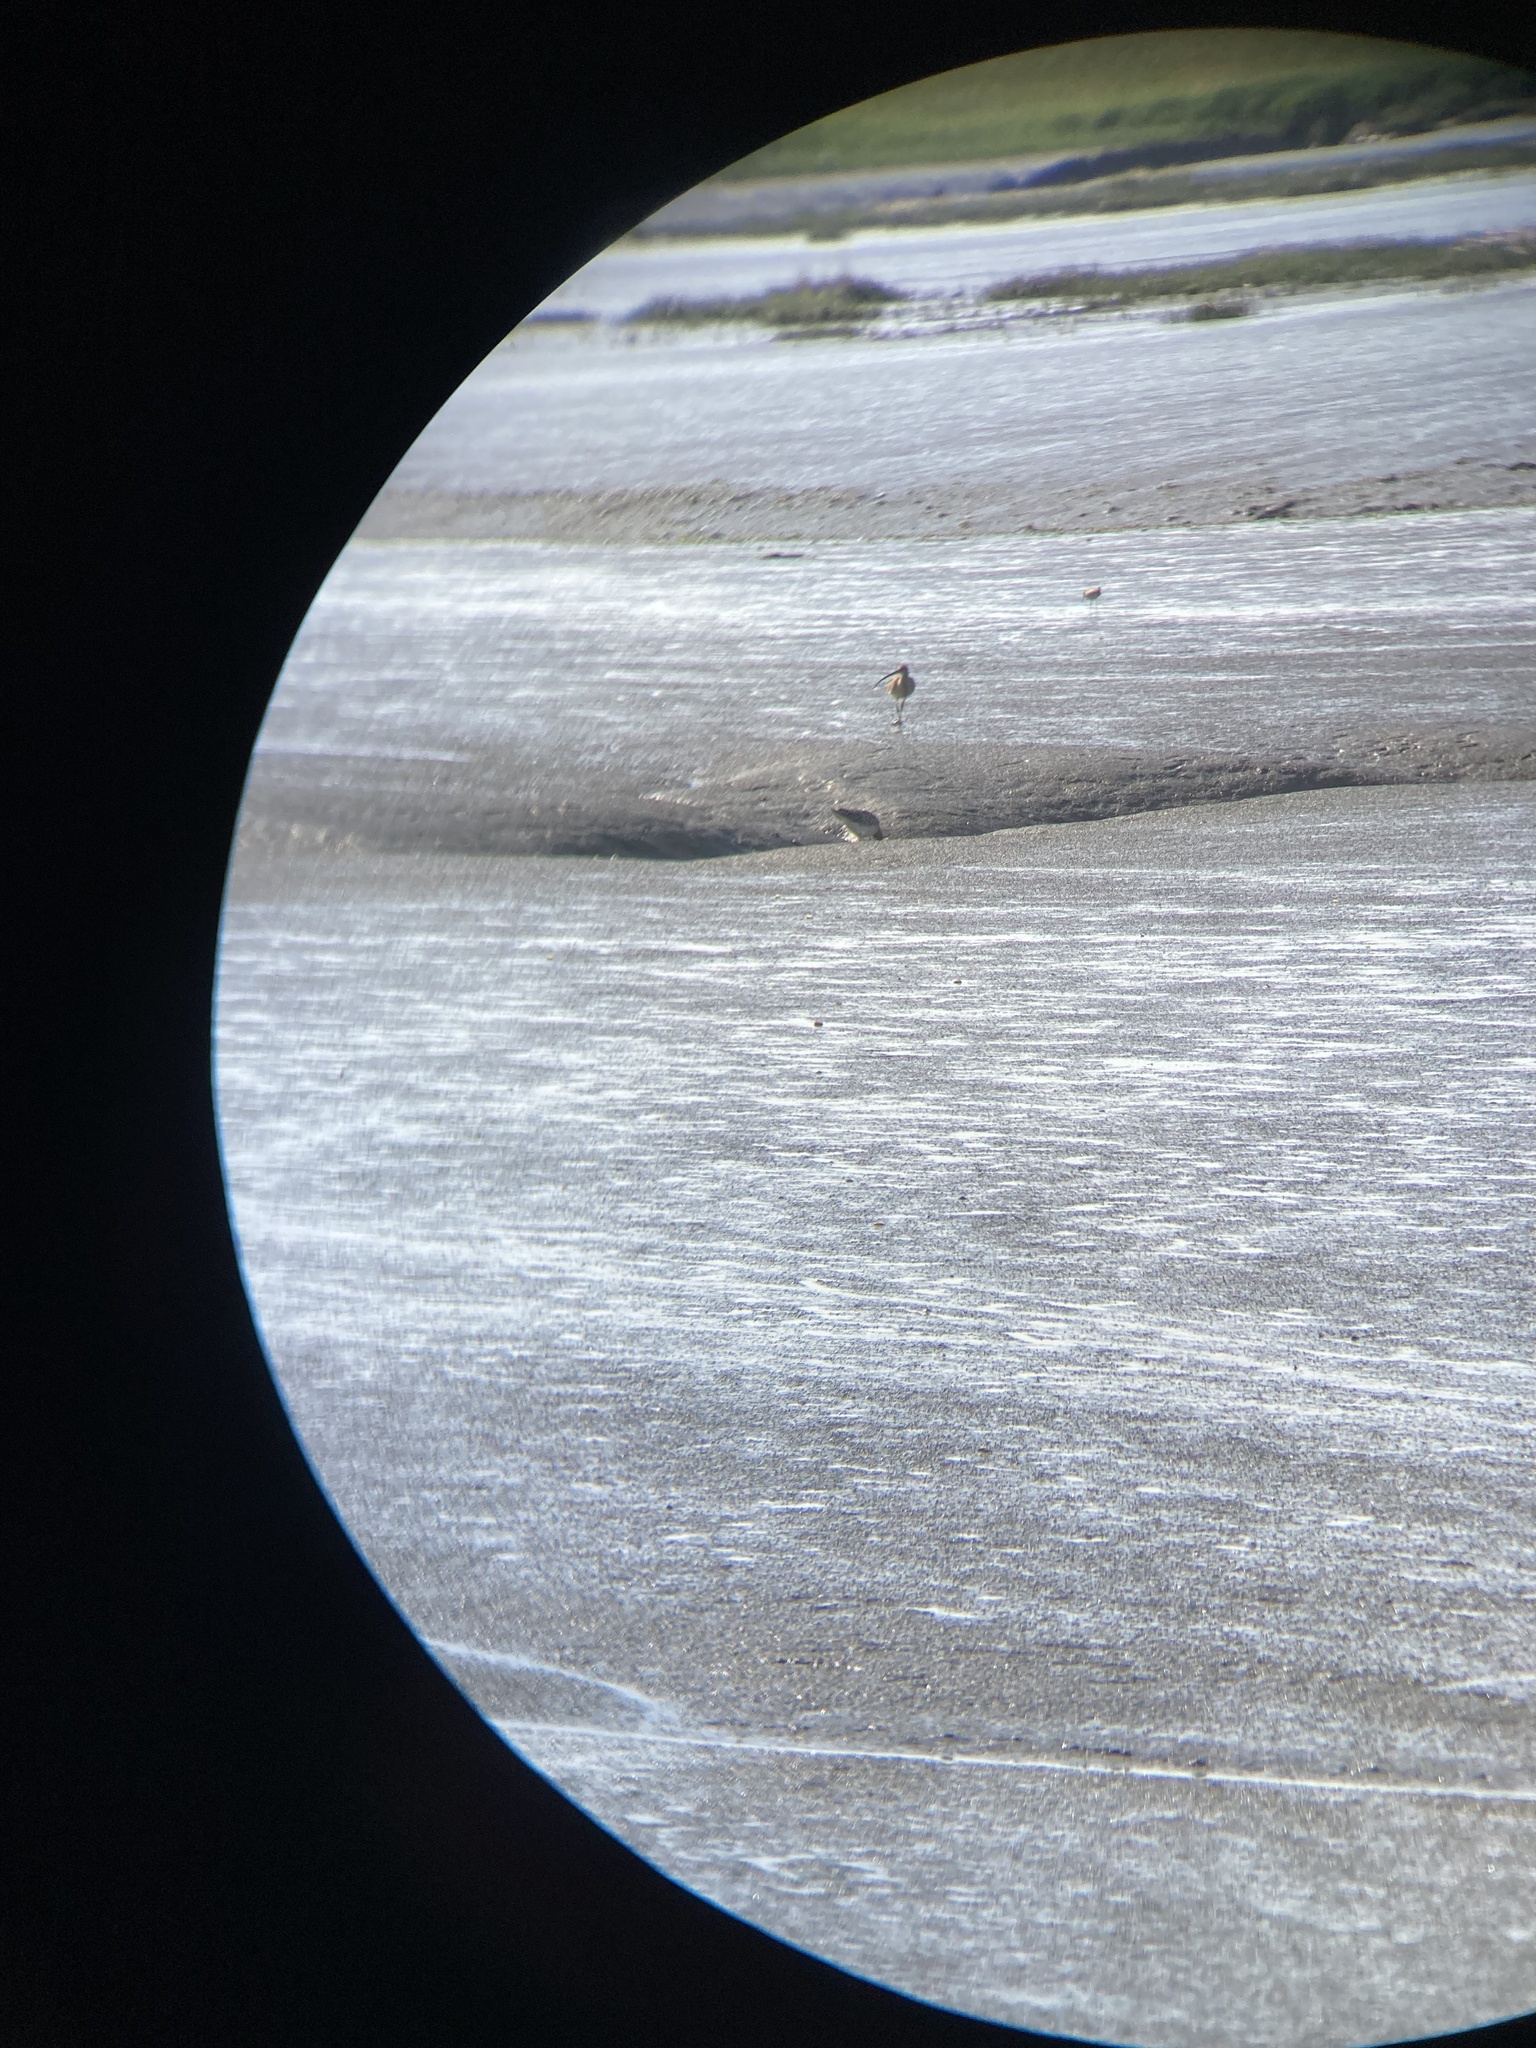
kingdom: Animalia
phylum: Chordata
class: Aves
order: Charadriiformes
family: Scolopacidae
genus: Numenius
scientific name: Numenius arquata
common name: Eurasian curlew
